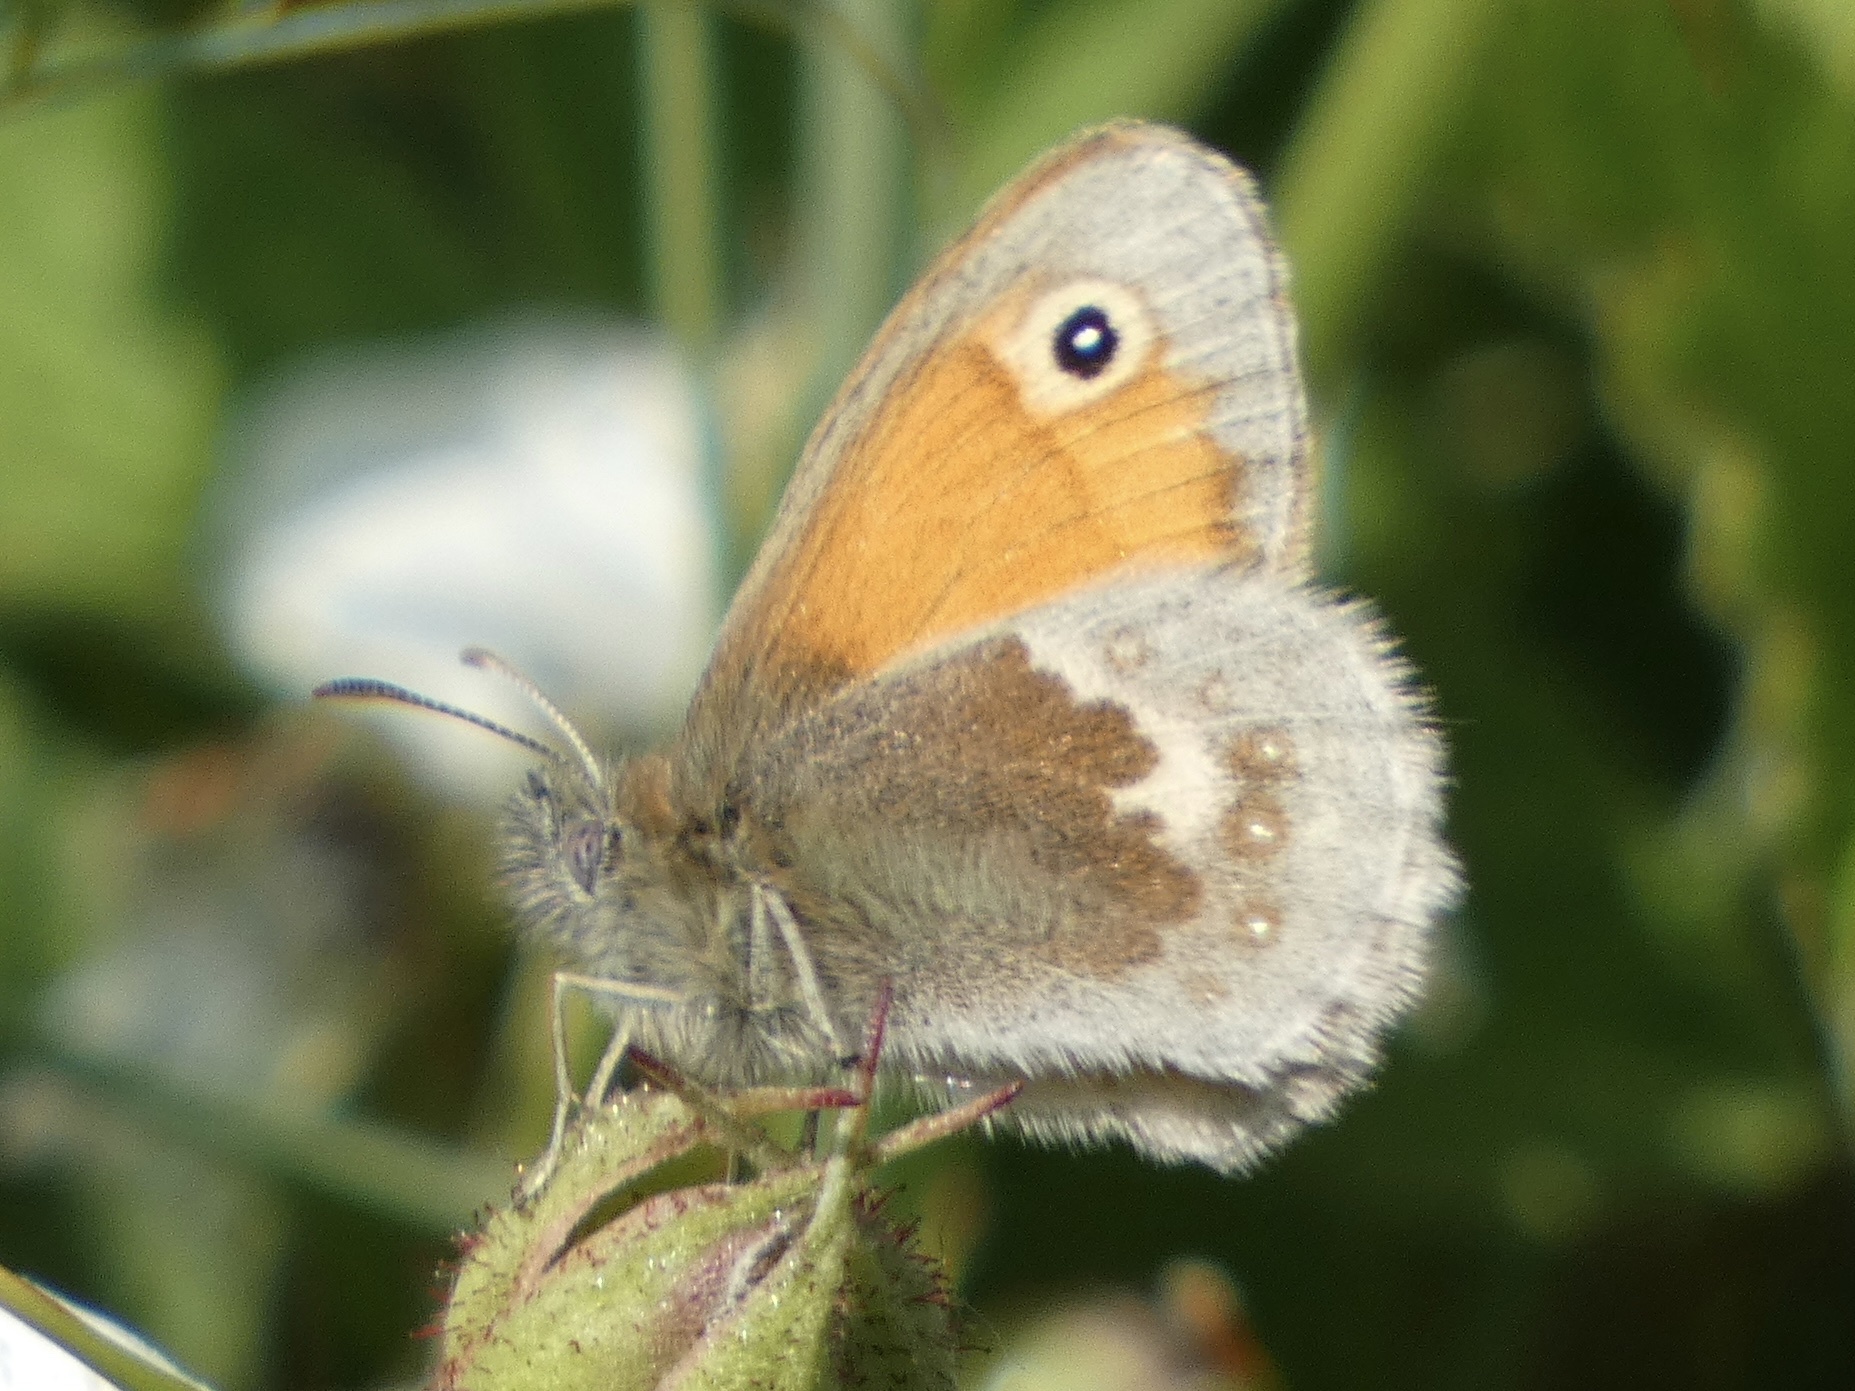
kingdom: Animalia
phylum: Arthropoda
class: Insecta
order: Lepidoptera
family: Nymphalidae
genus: Coenonympha
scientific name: Coenonympha pamphilus
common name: Small heath
